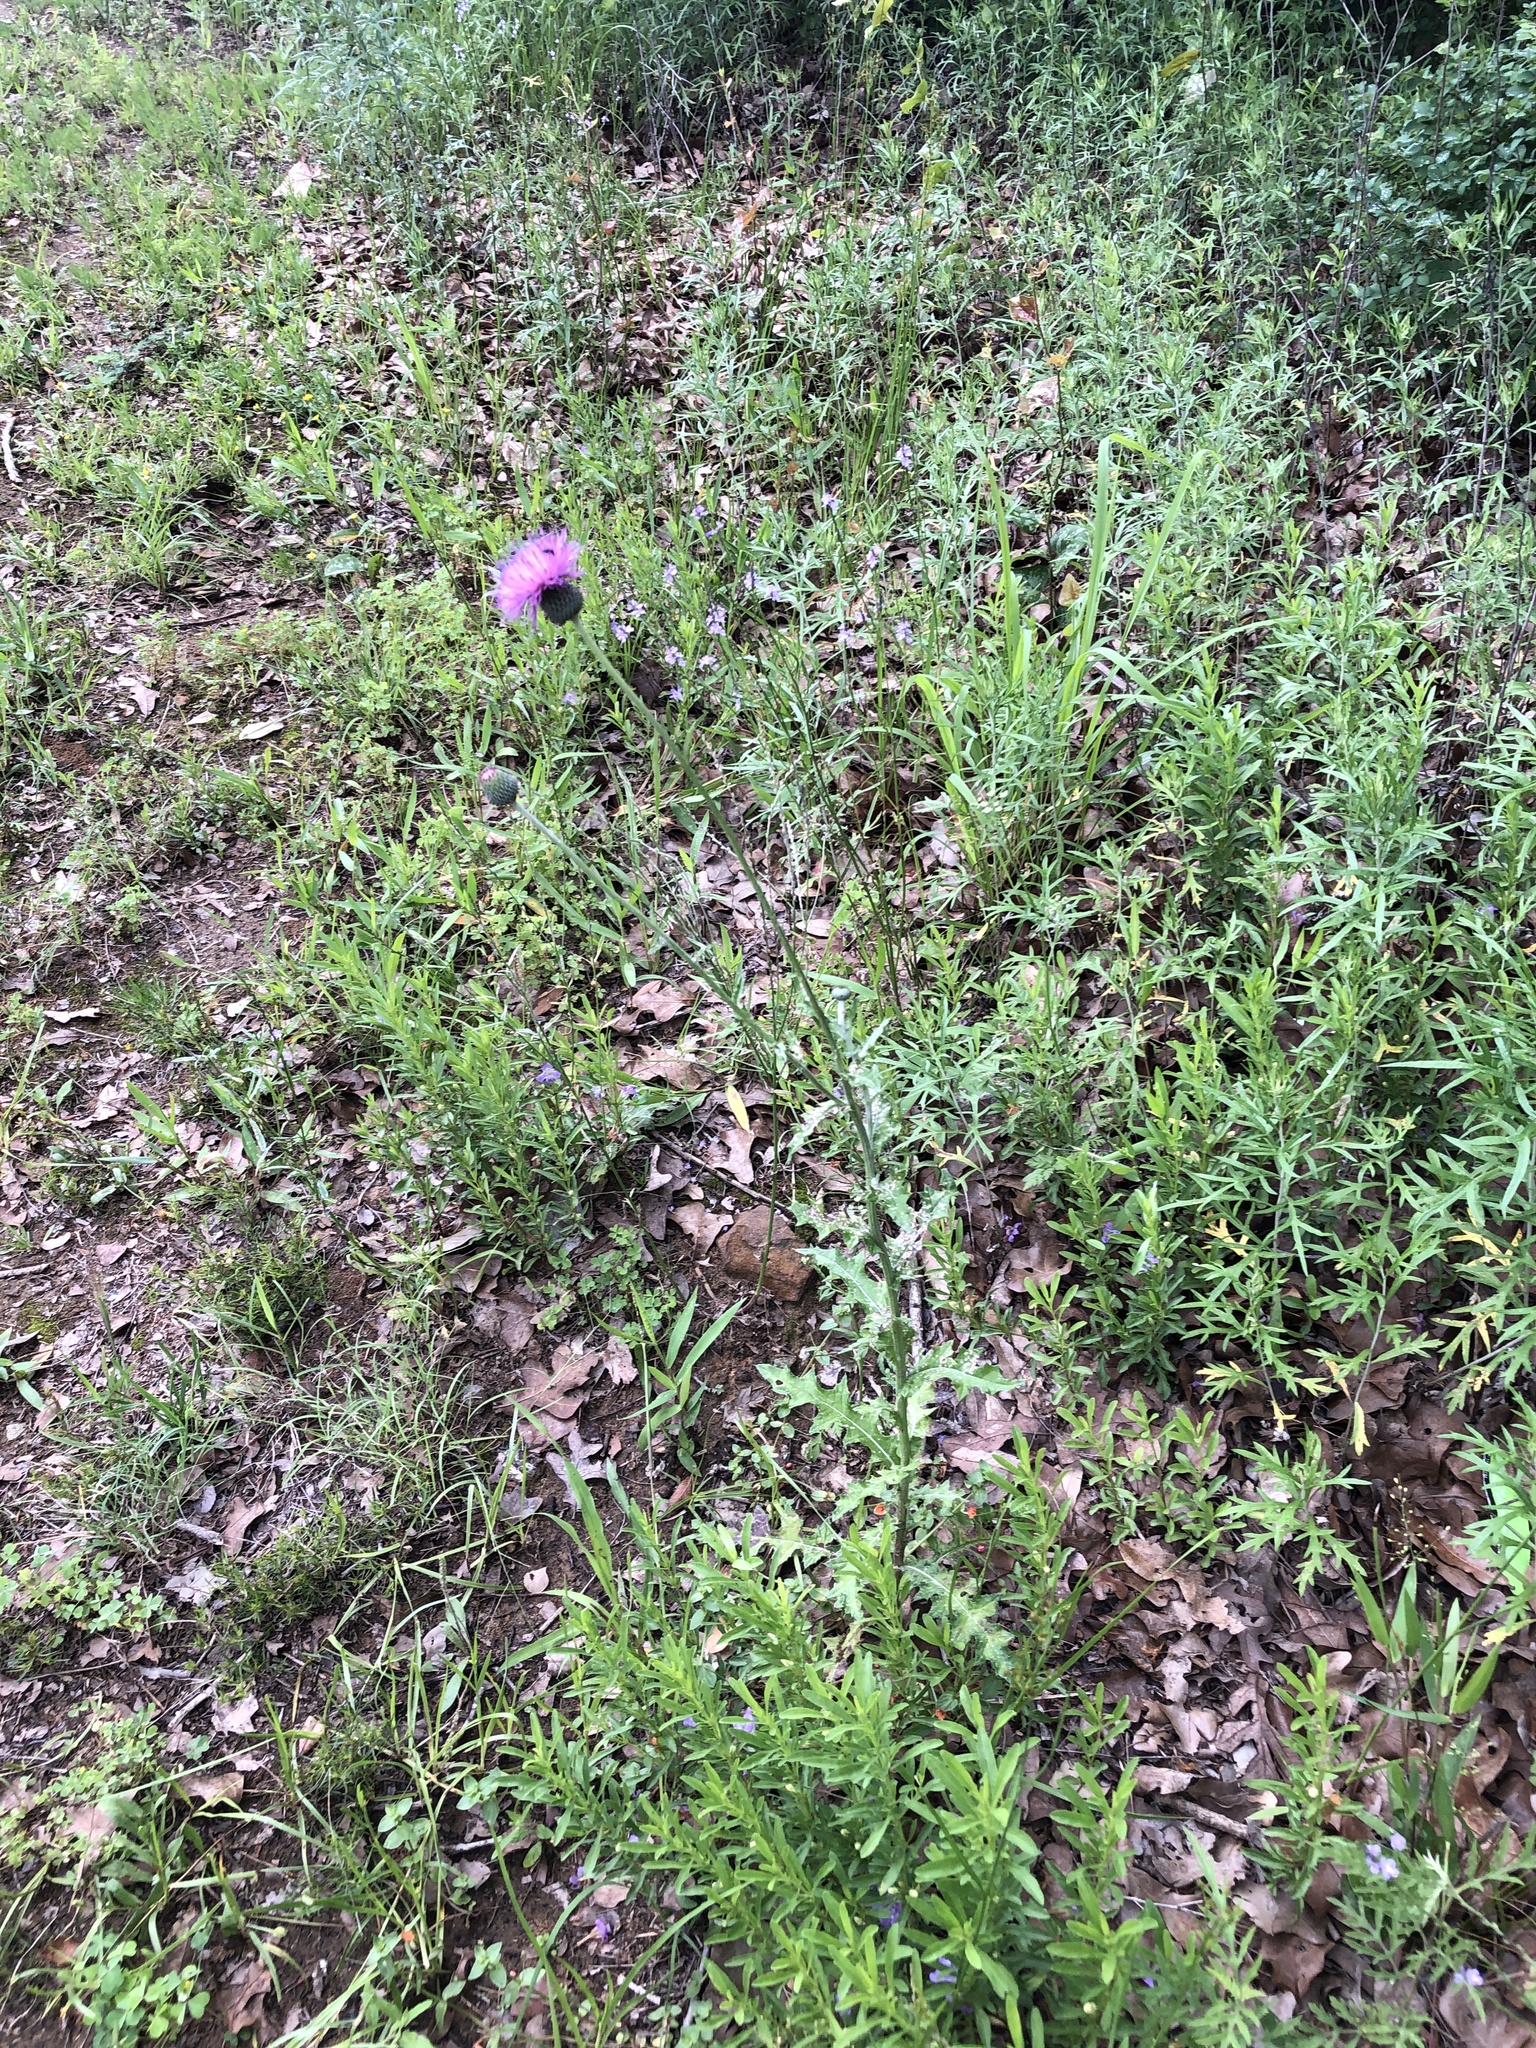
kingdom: Plantae
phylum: Tracheophyta
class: Magnoliopsida
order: Asterales
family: Asteraceae
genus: Cirsium
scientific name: Cirsium texanum
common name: Texas purple thistle
